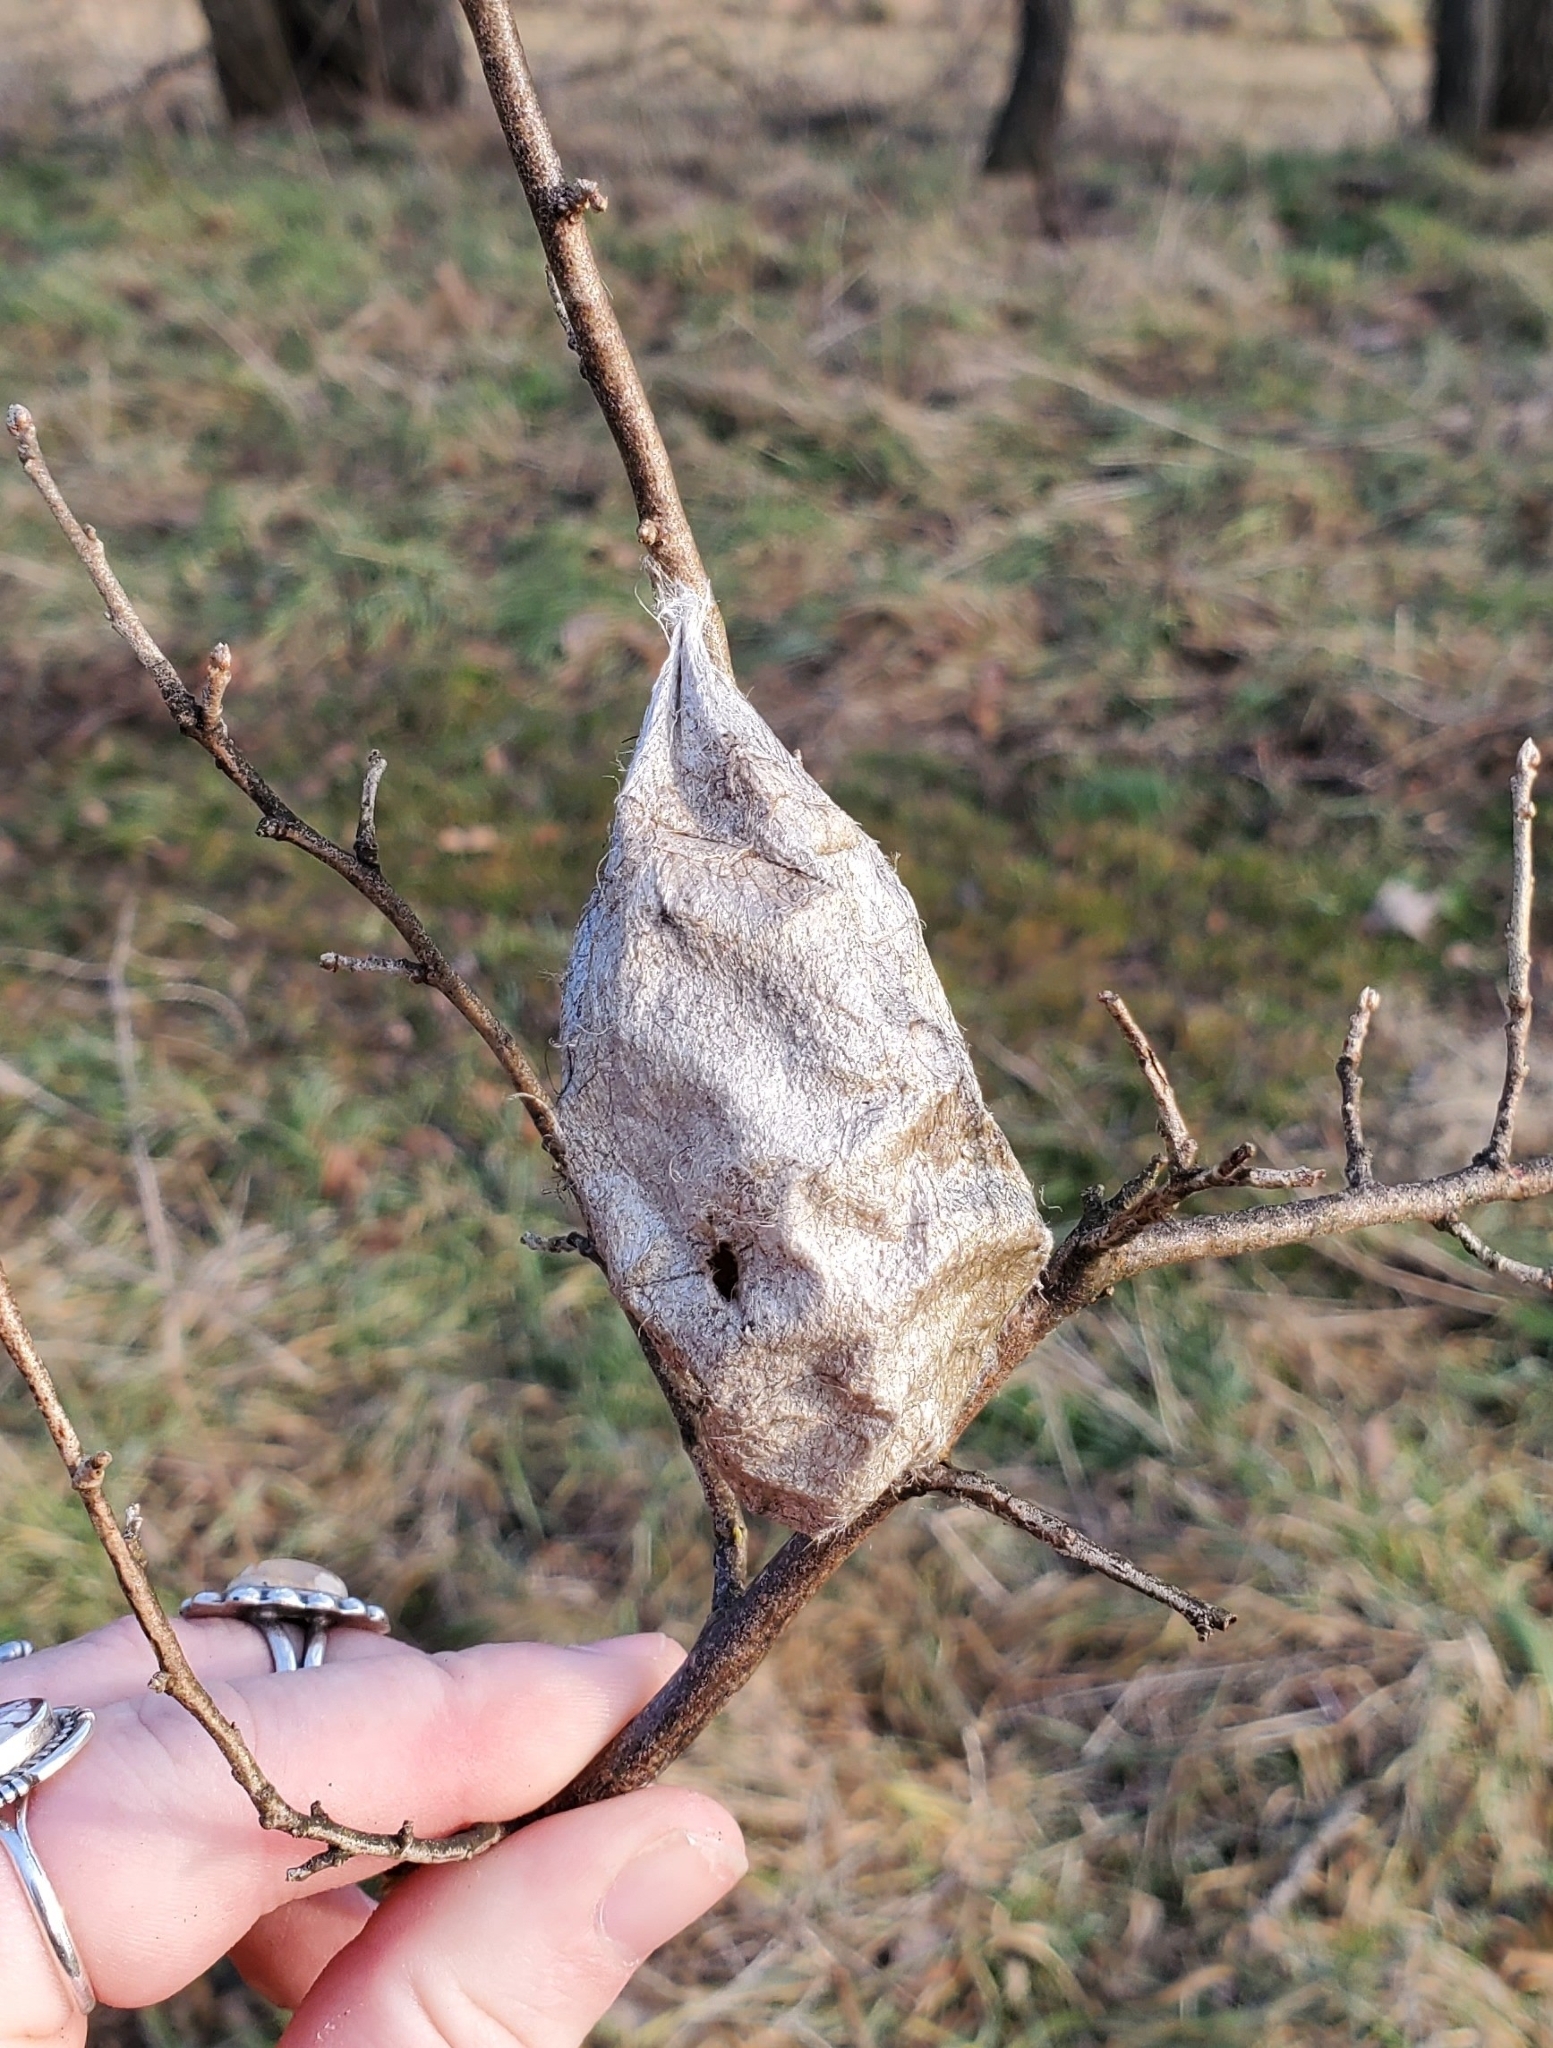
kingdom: Animalia
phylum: Arthropoda
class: Insecta
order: Lepidoptera
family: Saturniidae
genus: Hyalophora
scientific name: Hyalophora cecropia
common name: Cecropia silkmoth
